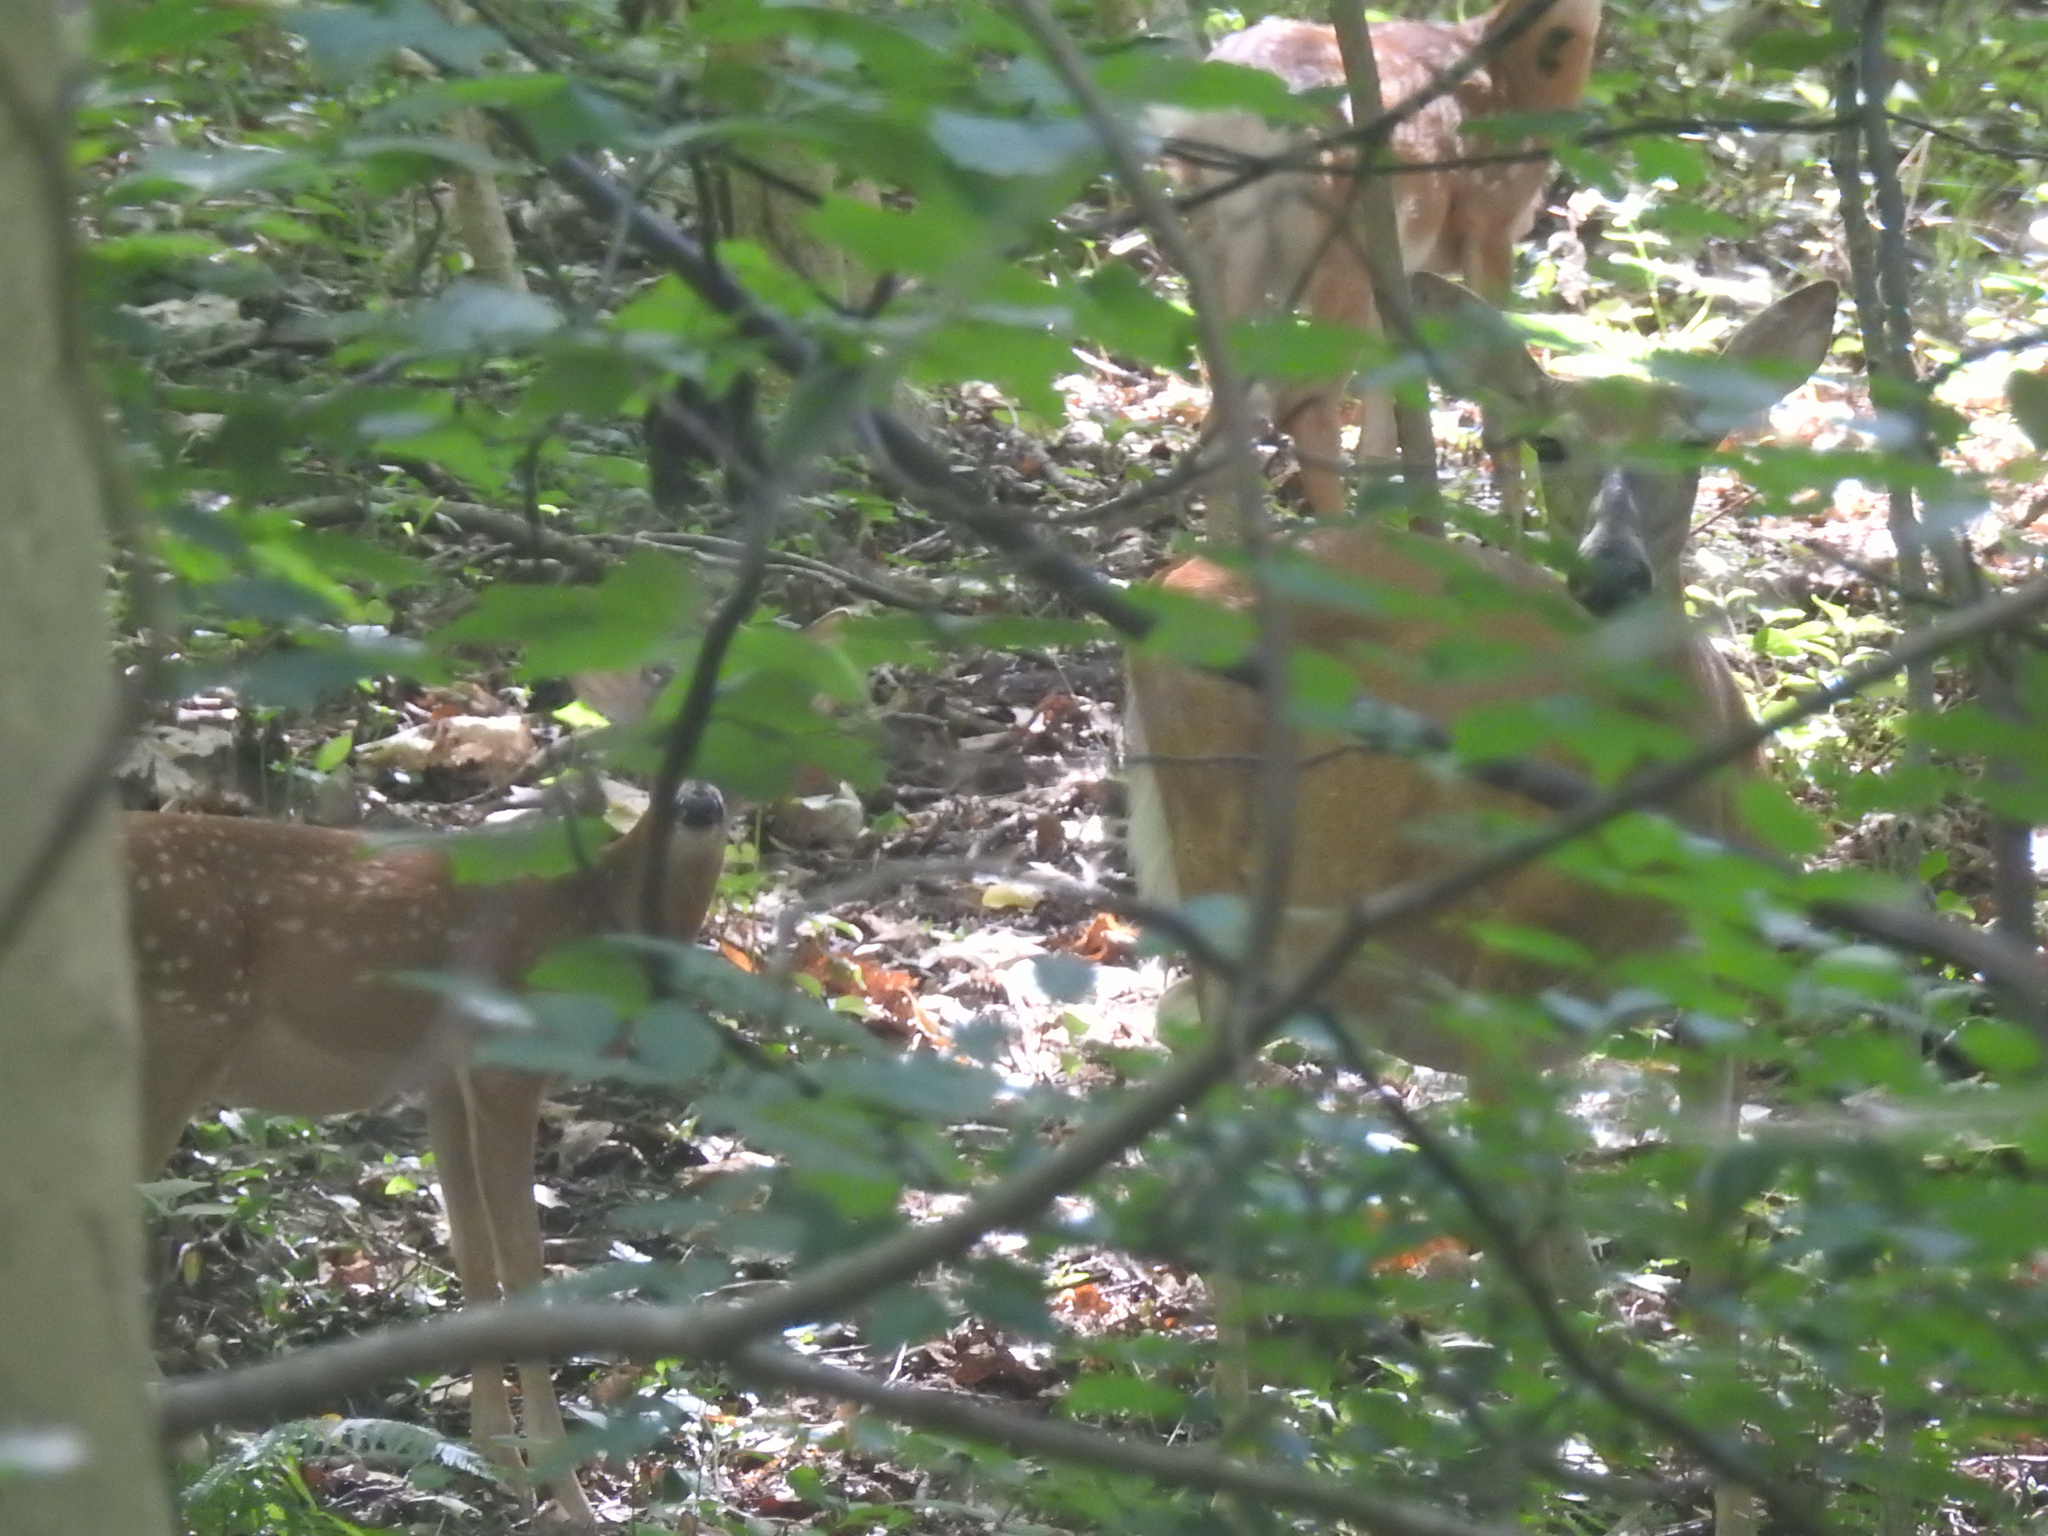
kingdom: Animalia
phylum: Chordata
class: Mammalia
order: Artiodactyla
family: Cervidae
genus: Odocoileus
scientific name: Odocoileus virginianus
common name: White-tailed deer
